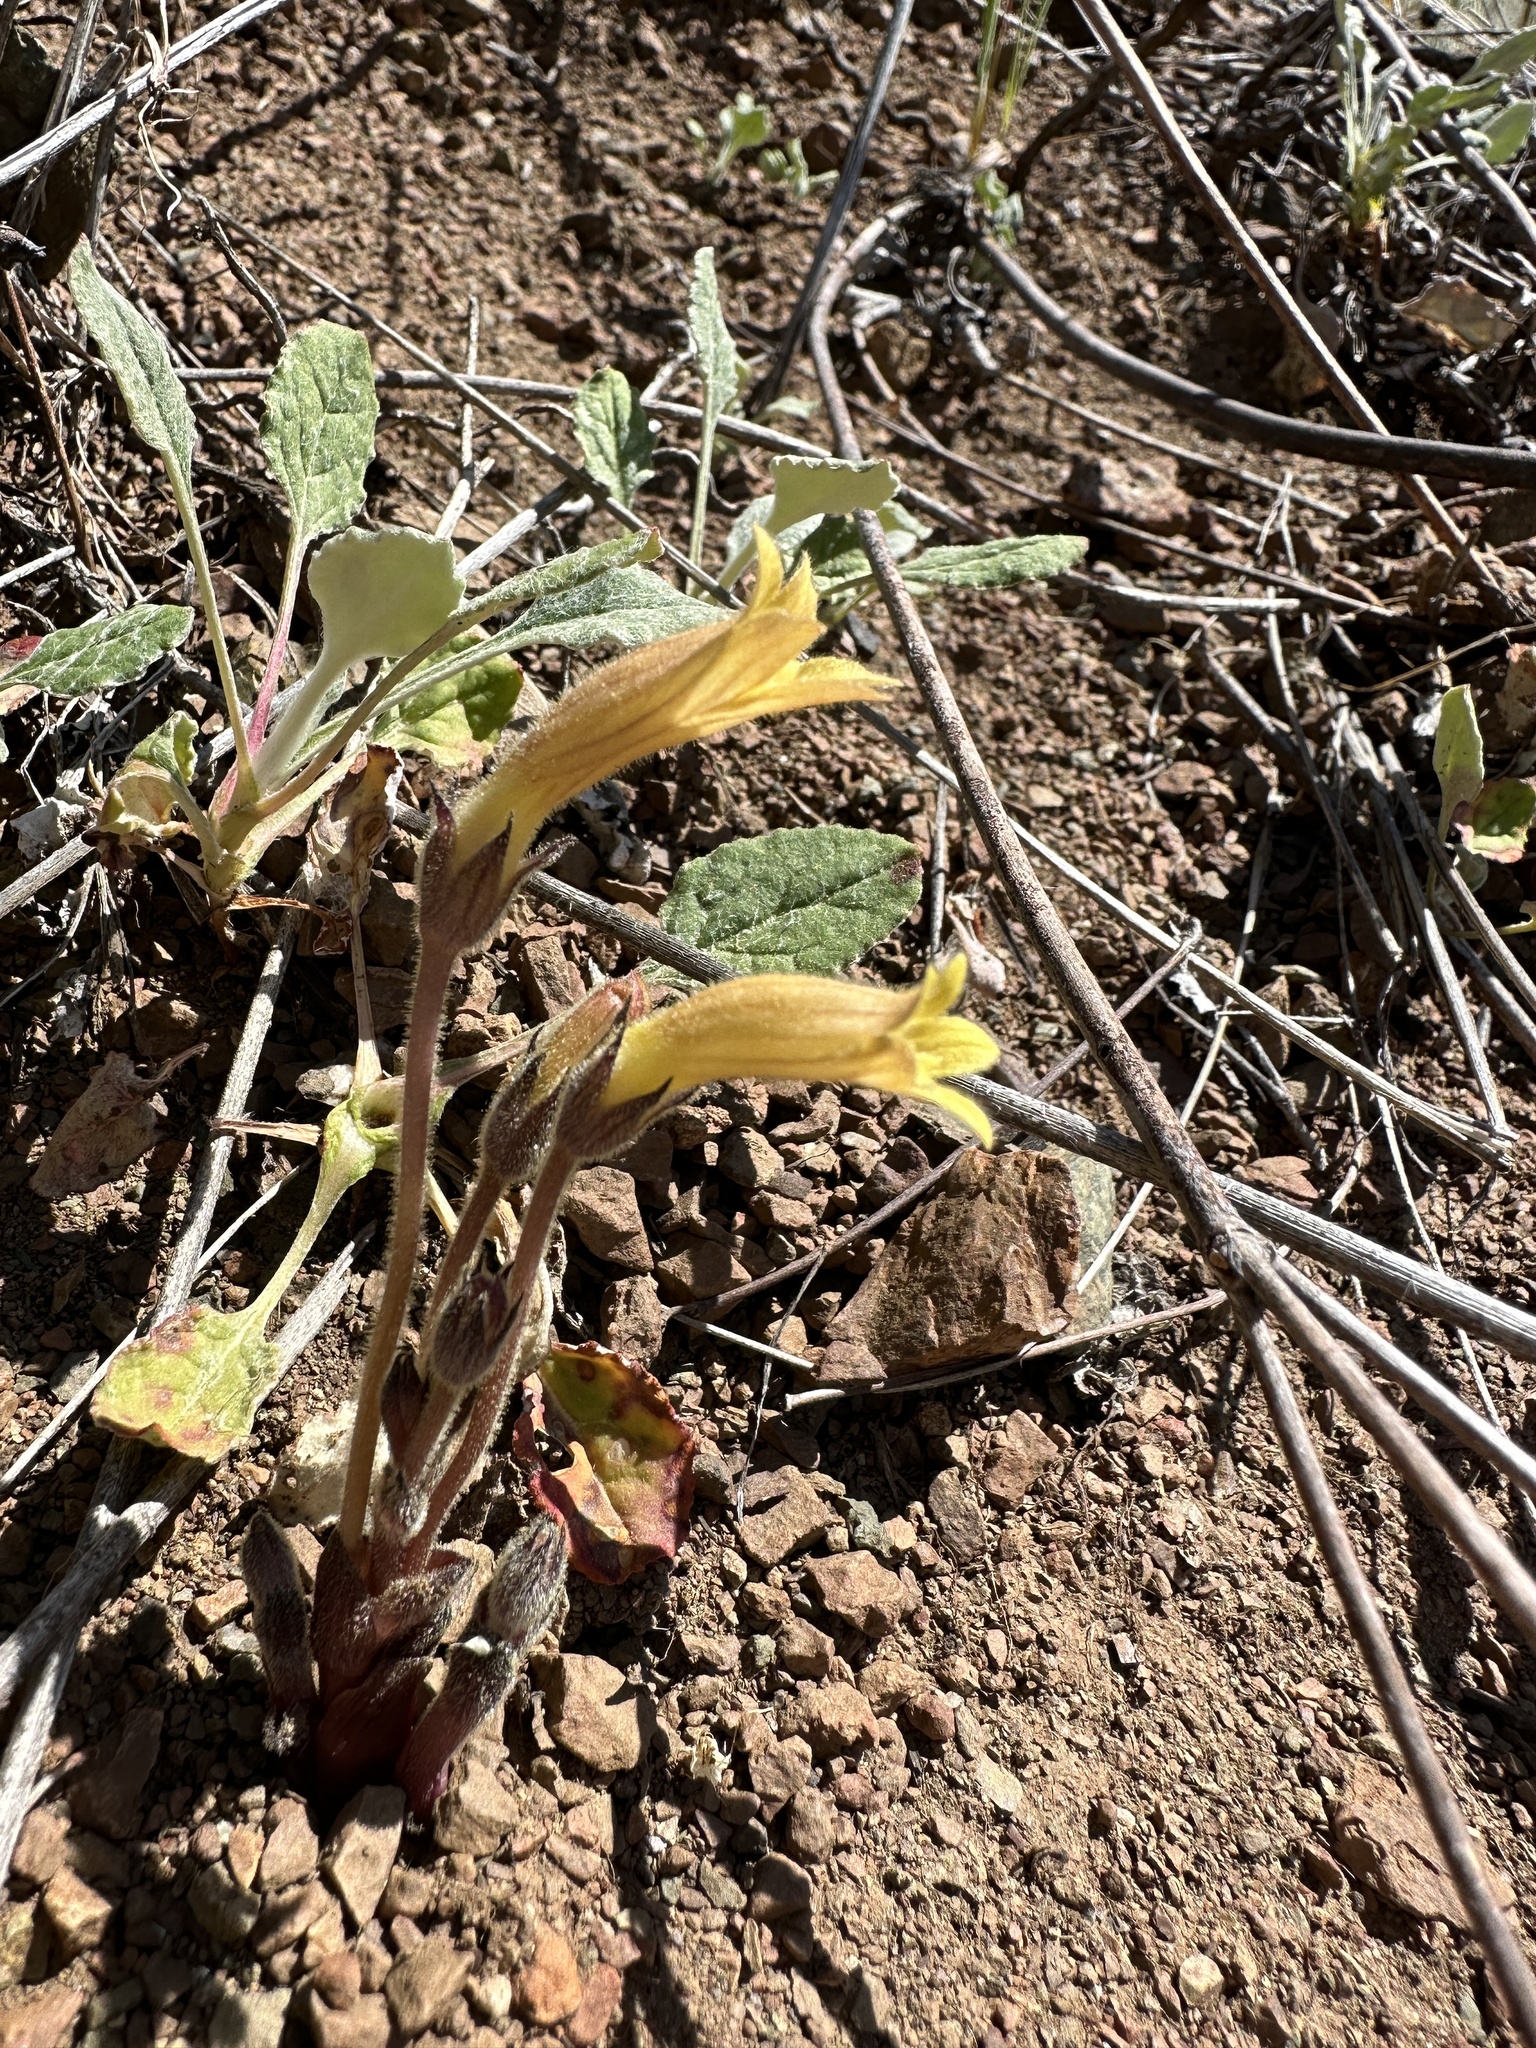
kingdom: Plantae
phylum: Tracheophyta
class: Magnoliopsida
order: Lamiales
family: Orobanchaceae
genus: Aphyllon
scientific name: Aphyllon franciscanum
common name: San francisco broomrape
